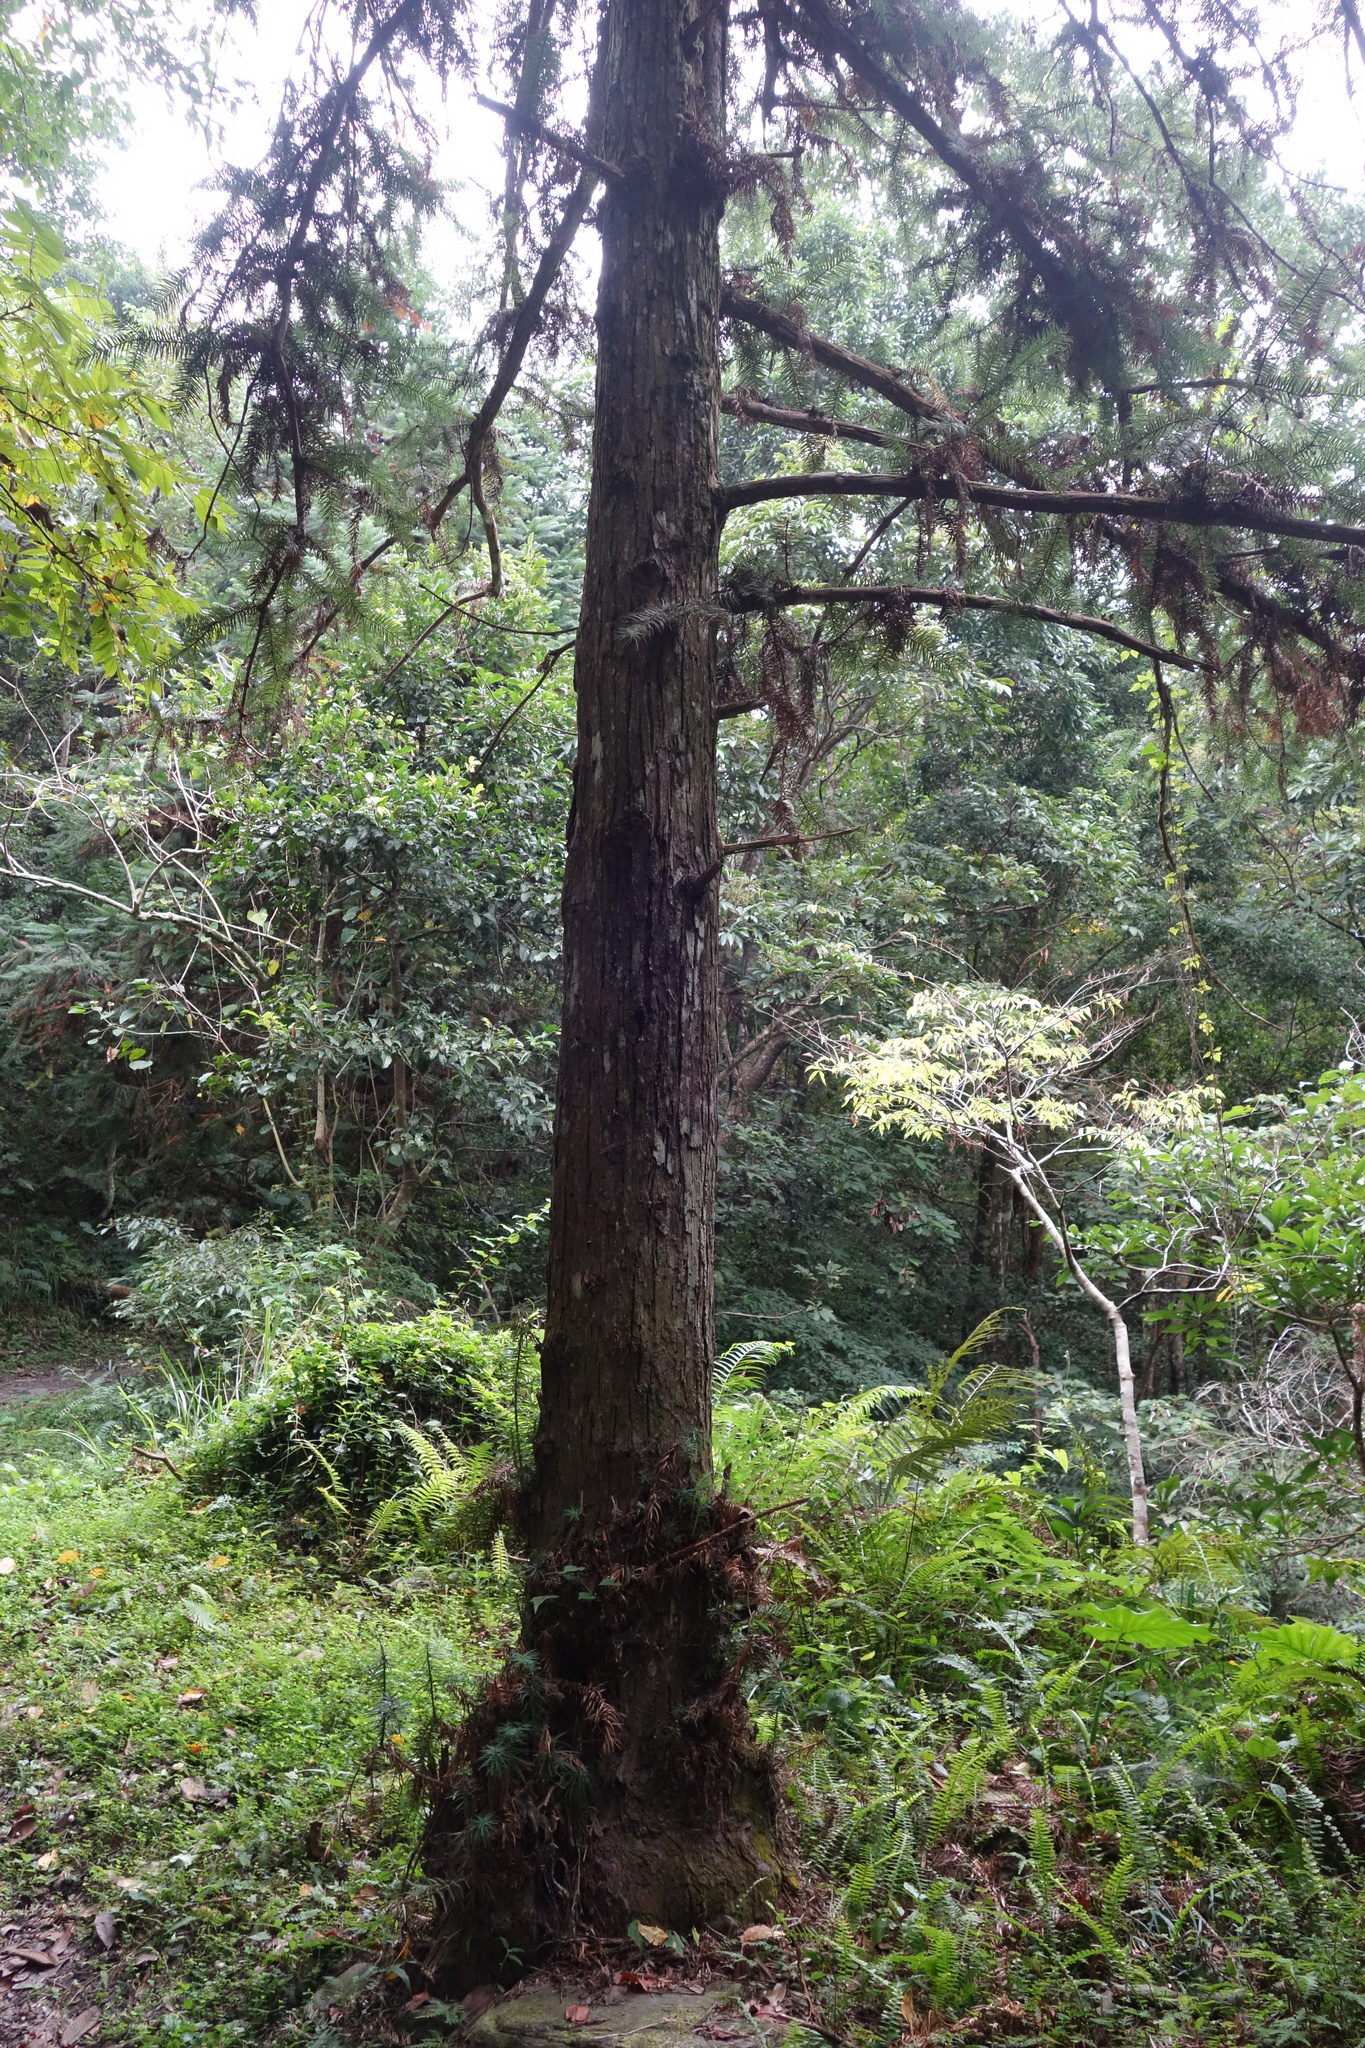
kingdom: Plantae
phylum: Tracheophyta
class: Pinopsida
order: Pinales
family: Cupressaceae
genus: Cunninghamia
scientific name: Cunninghamia lanceolata
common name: Chinese fir
